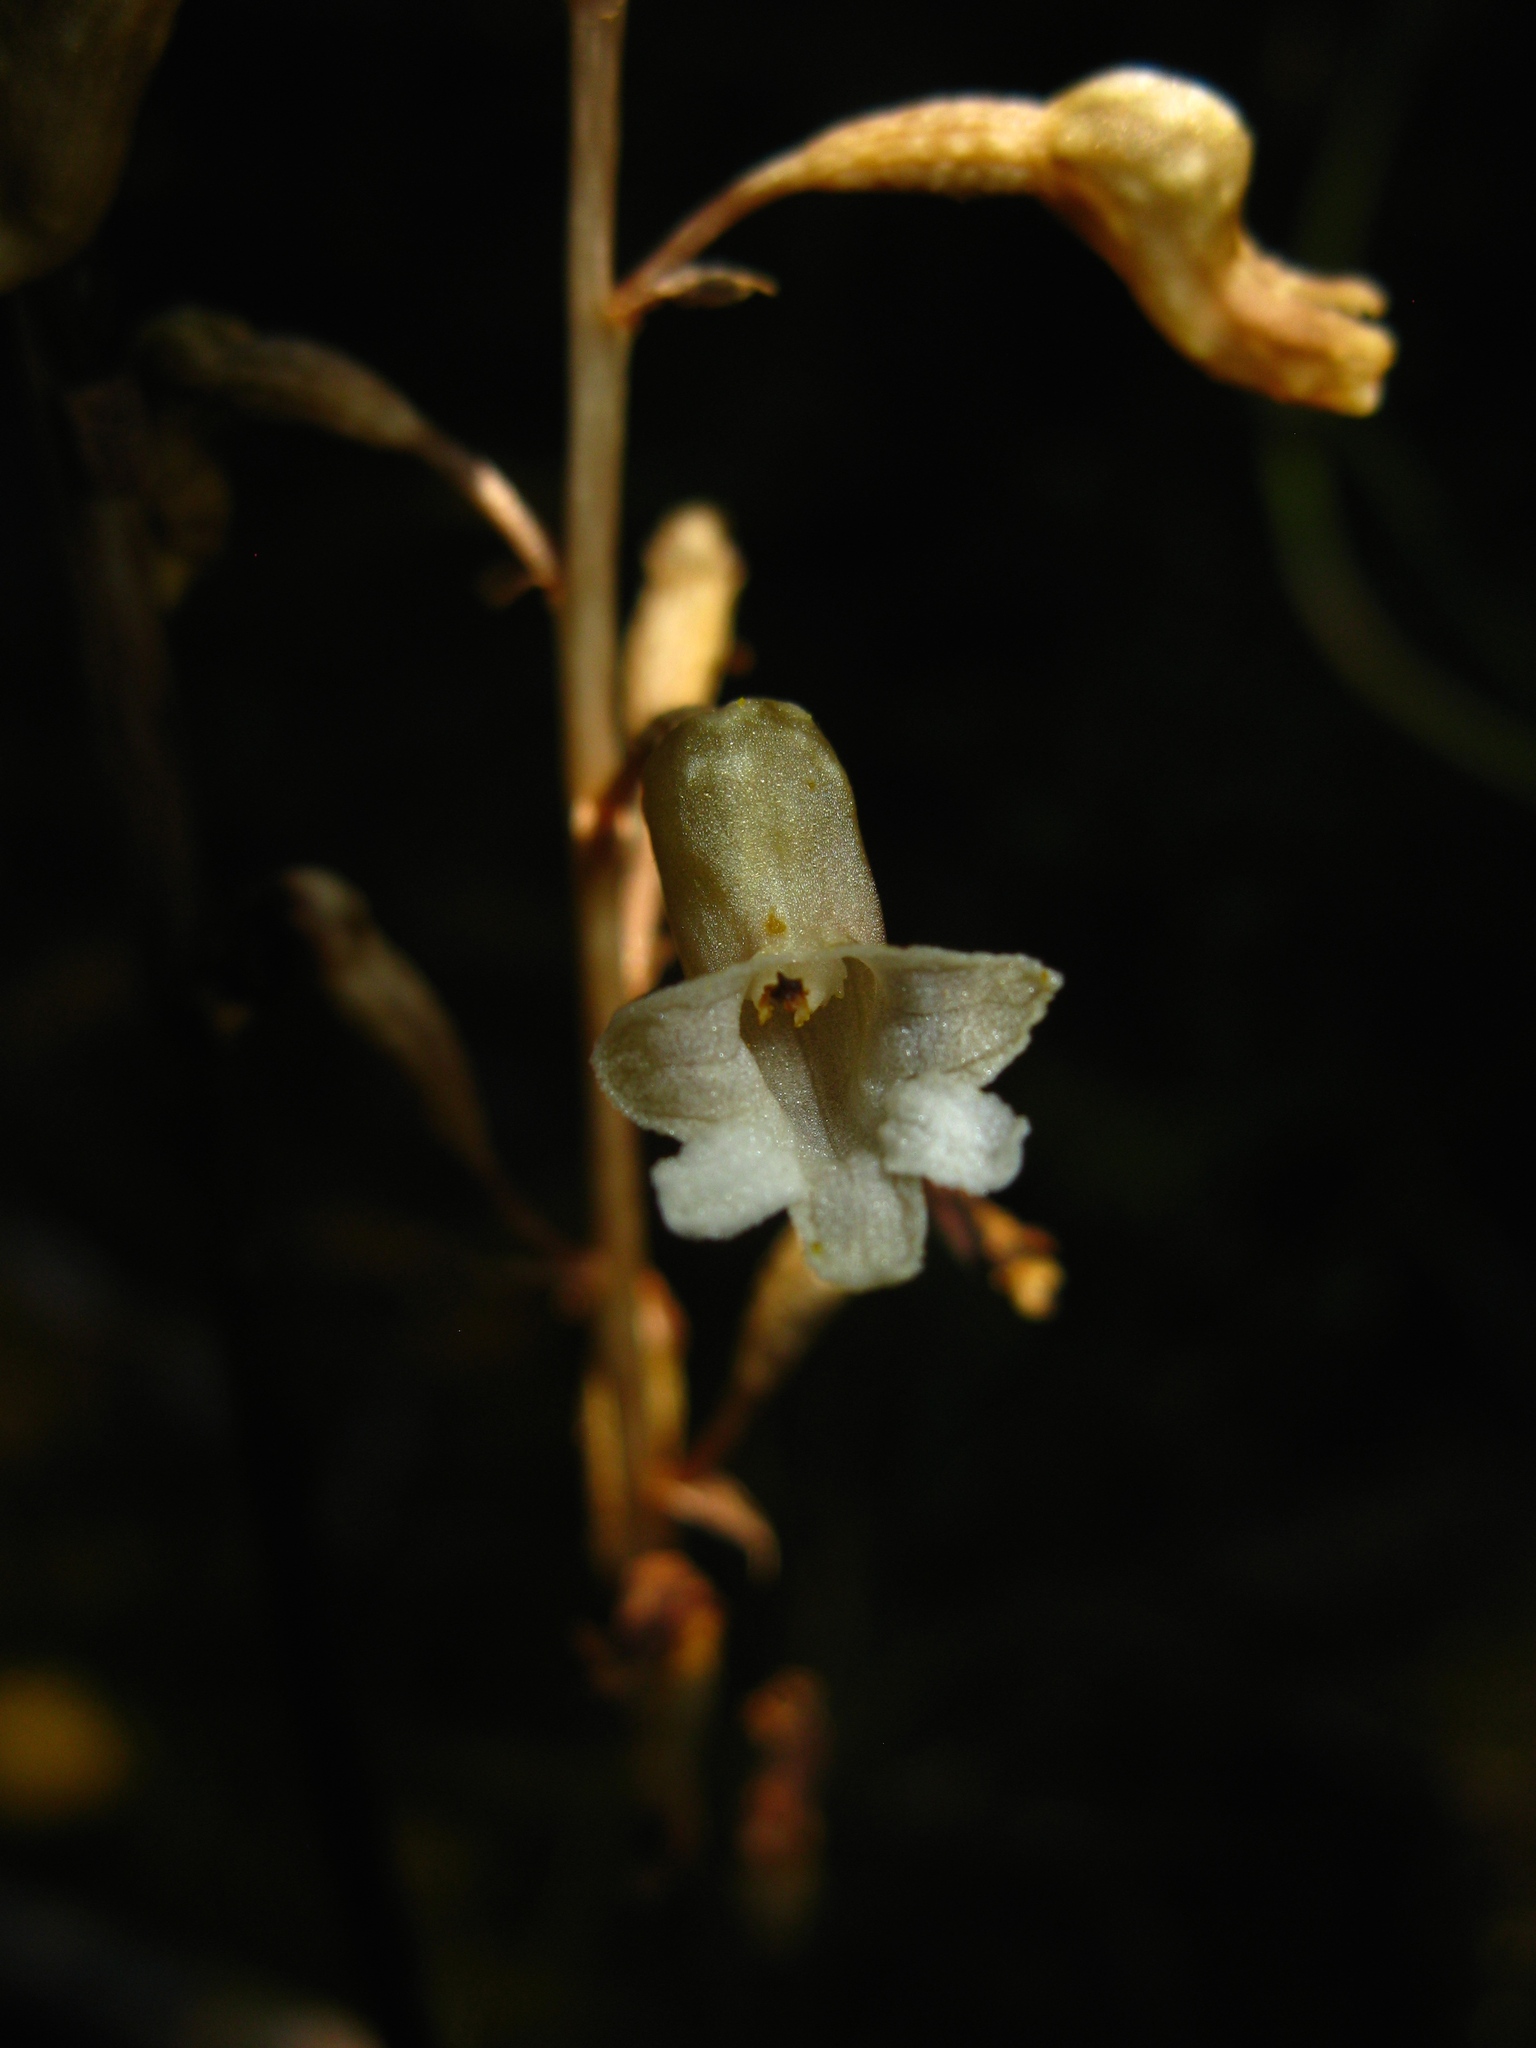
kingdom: Plantae
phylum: Tracheophyta
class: Liliopsida
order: Asparagales
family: Orchidaceae
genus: Gastrodia
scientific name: Gastrodia cunninghamii
